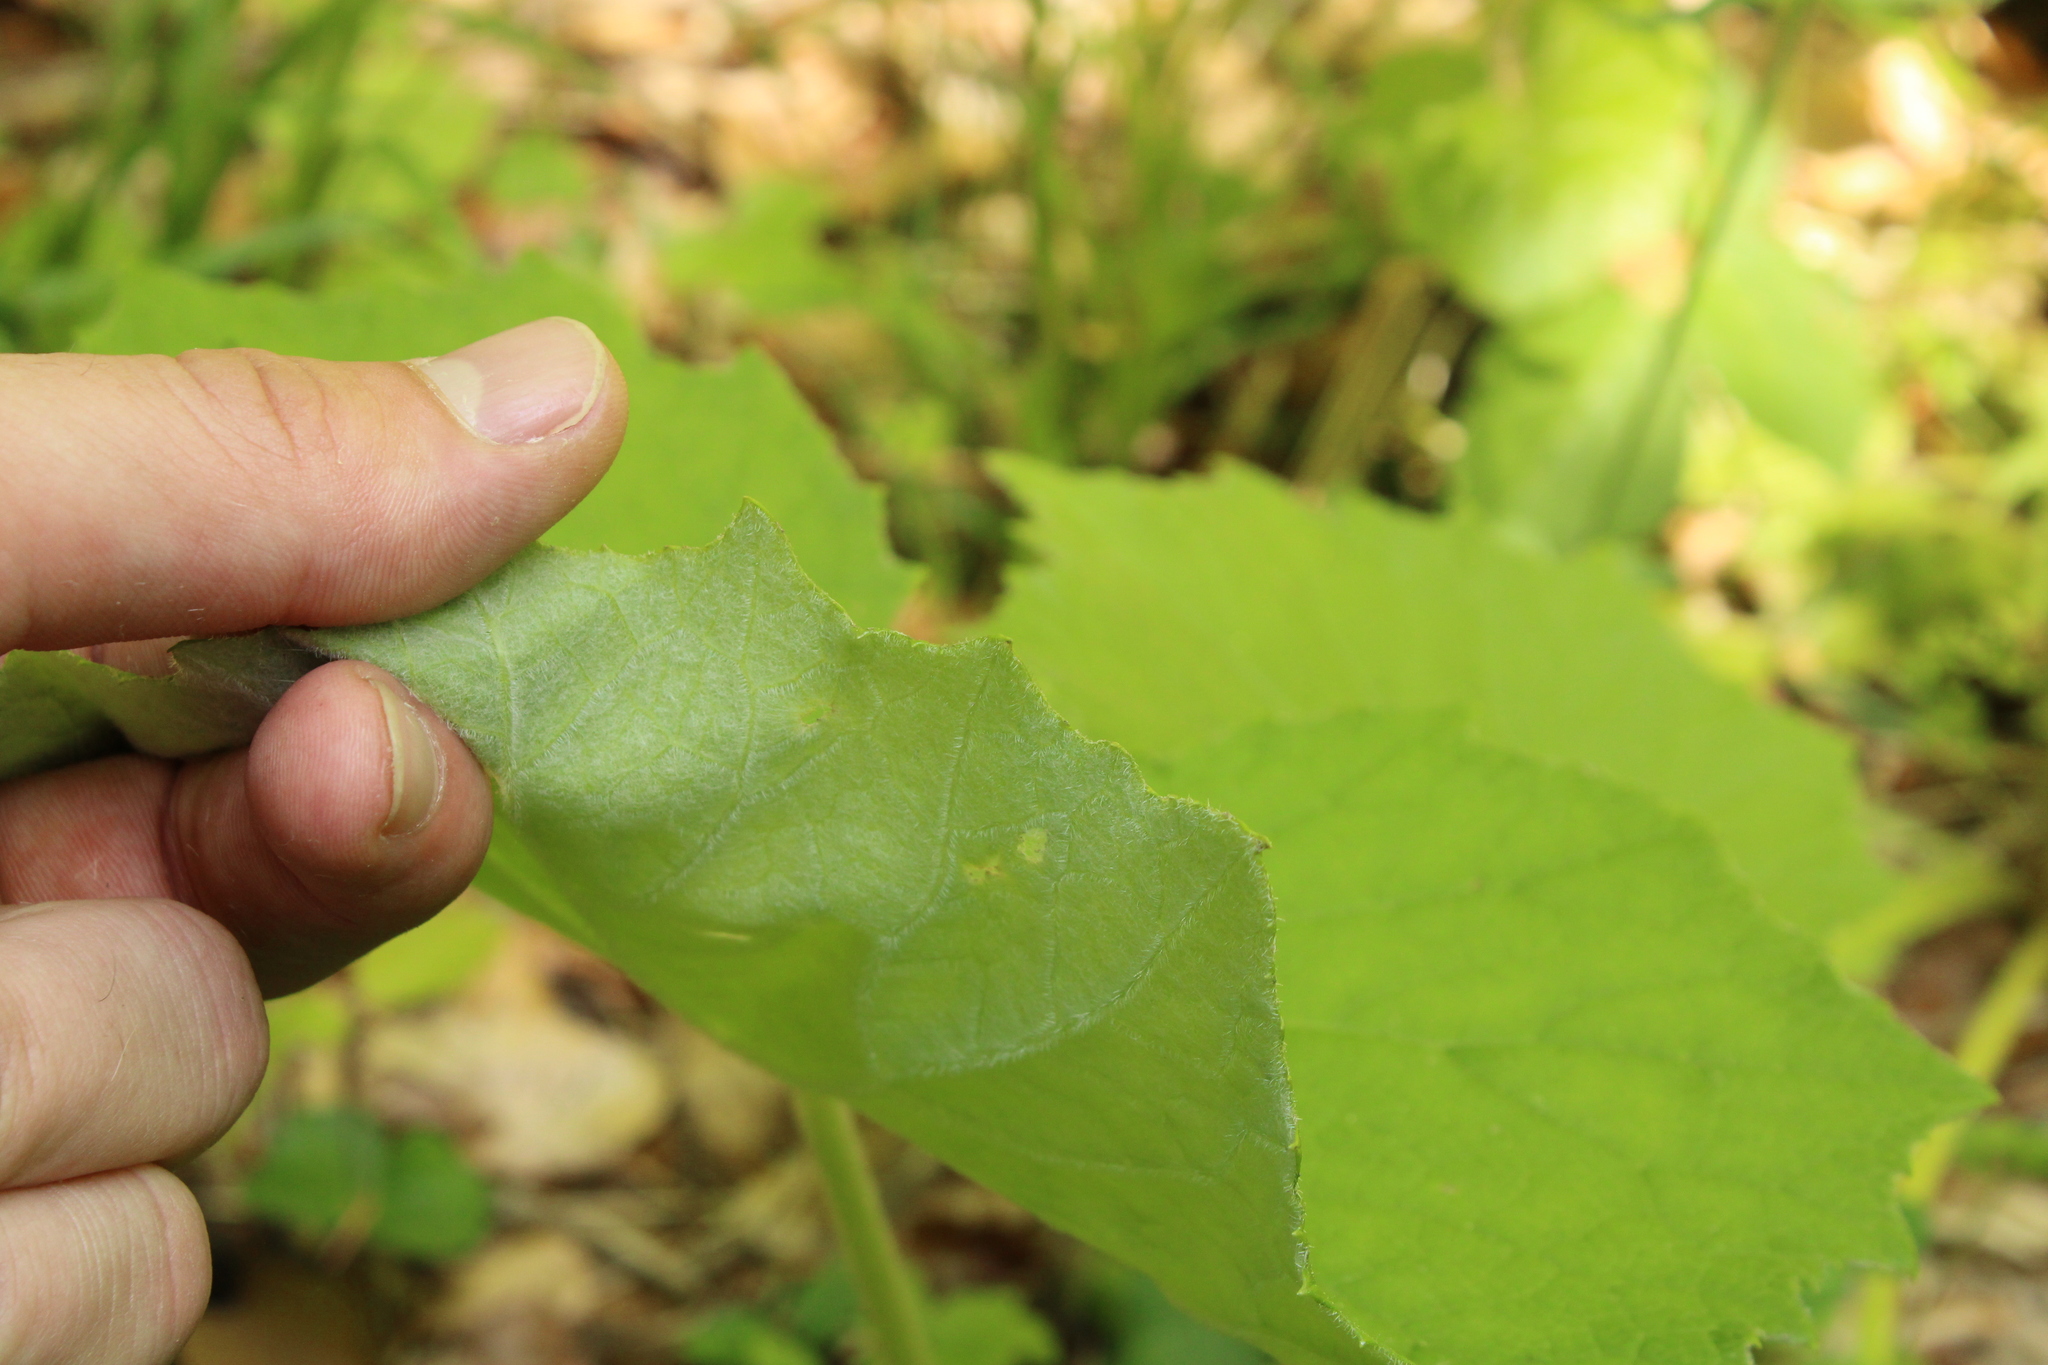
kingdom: Plantae
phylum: Tracheophyta
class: Magnoliopsida
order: Asterales
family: Asteraceae
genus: Petasites
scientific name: Petasites albus
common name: White butterbur
